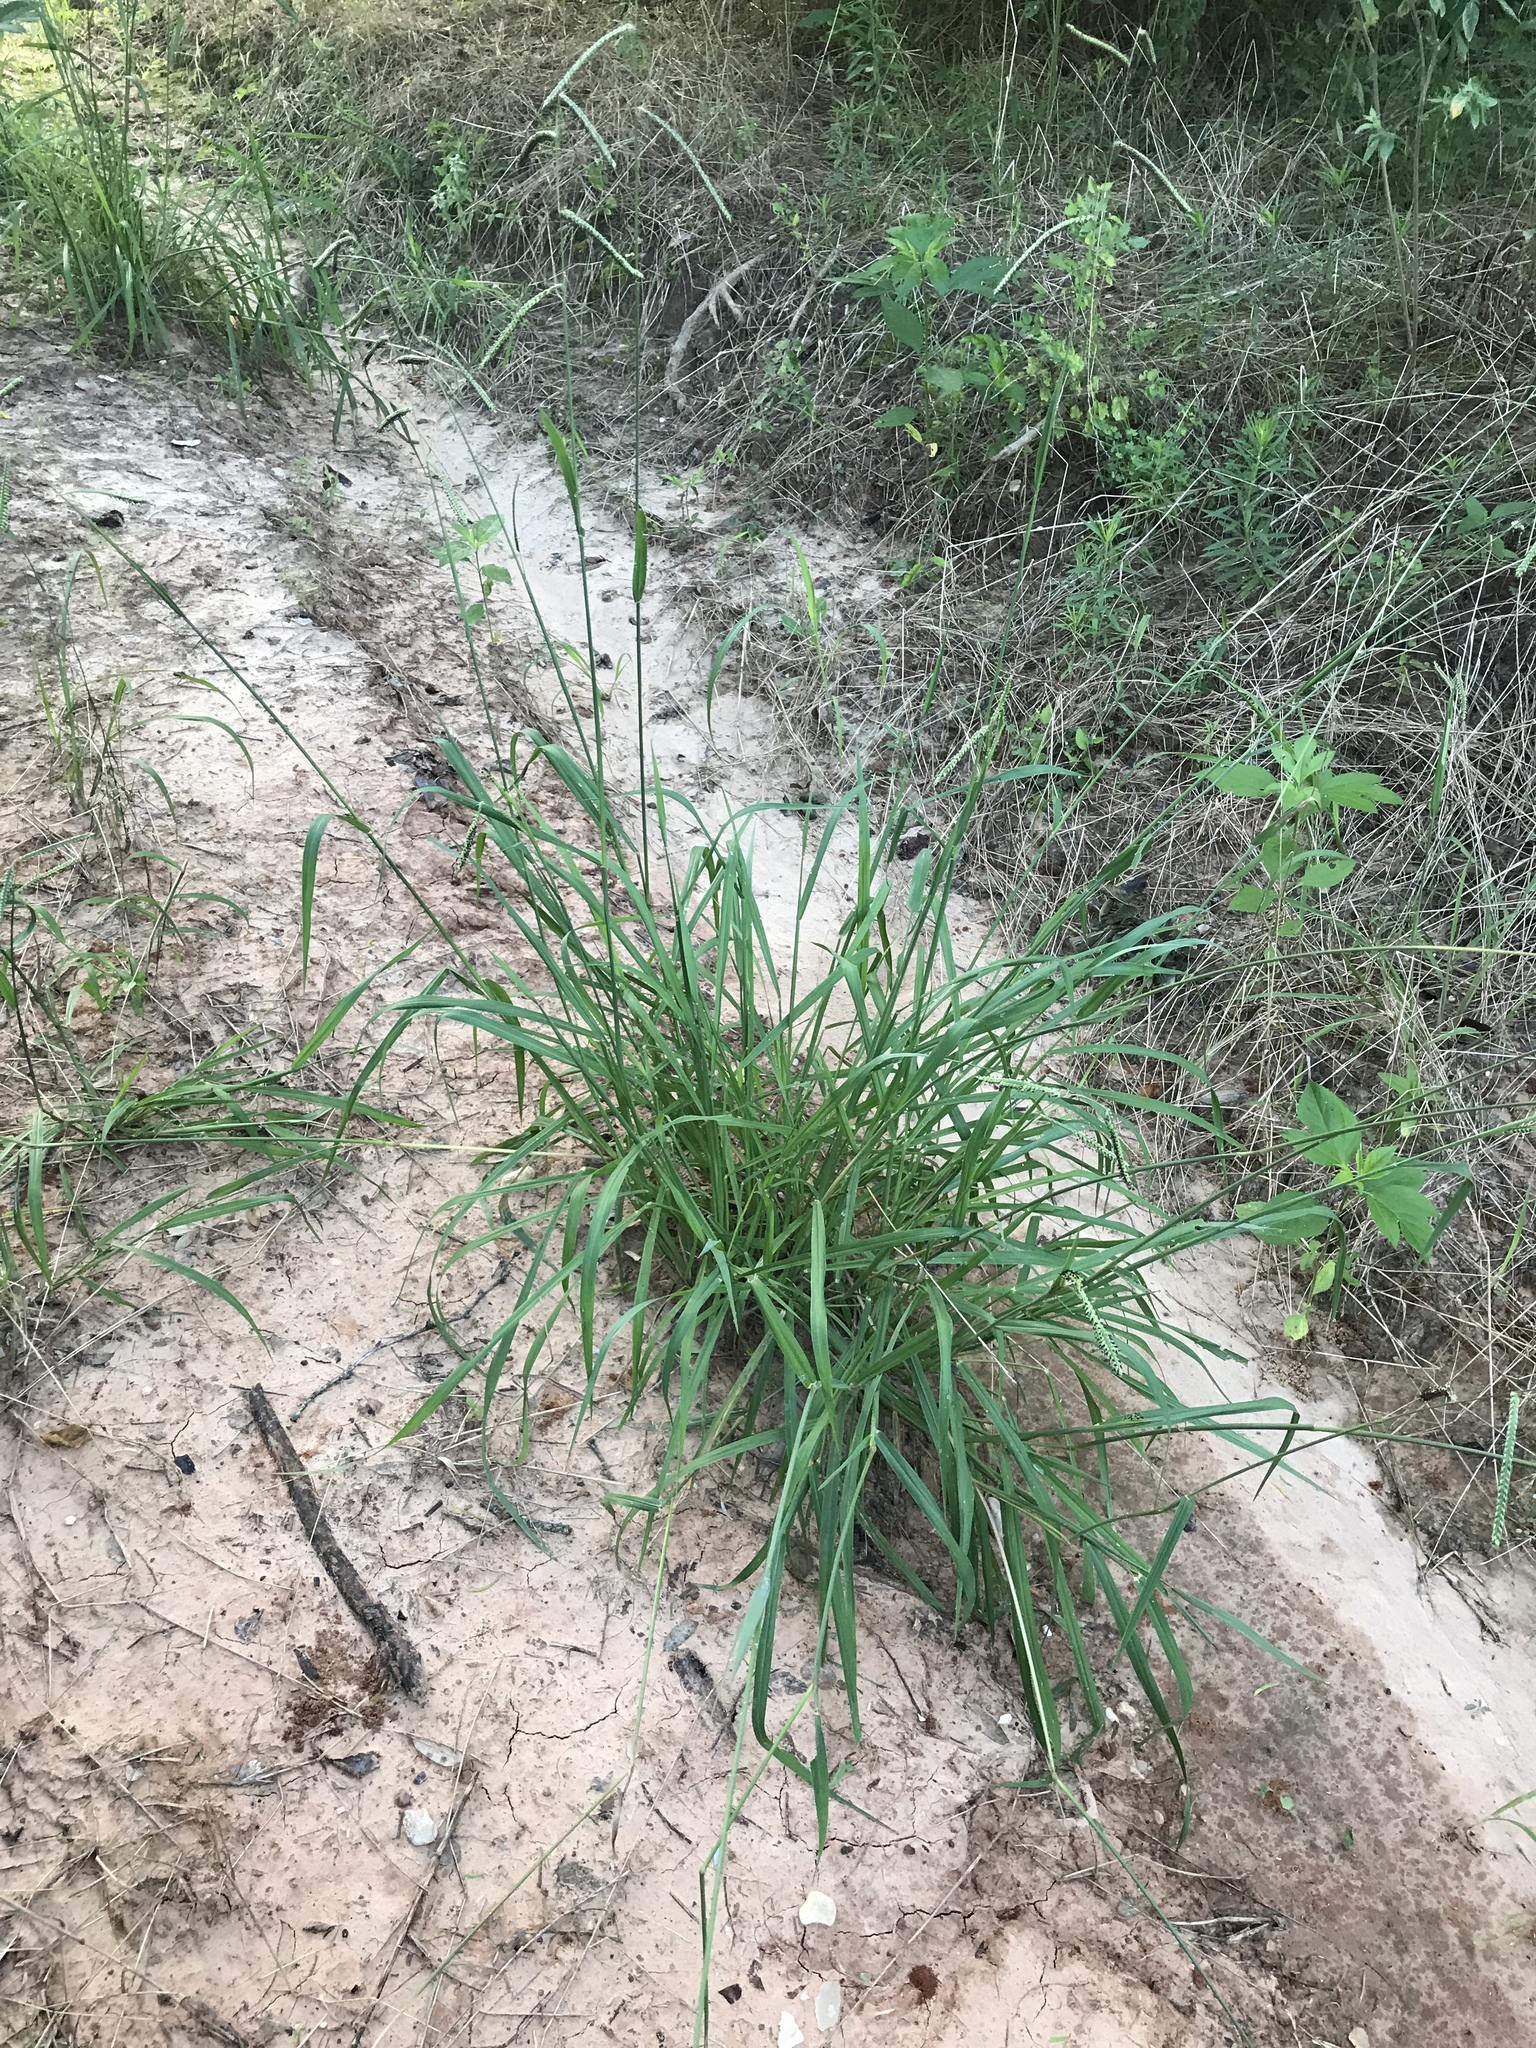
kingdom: Plantae
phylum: Tracheophyta
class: Liliopsida
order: Poales
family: Poaceae
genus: Paspalum
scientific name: Paspalum dilatatum
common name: Dallisgrass
